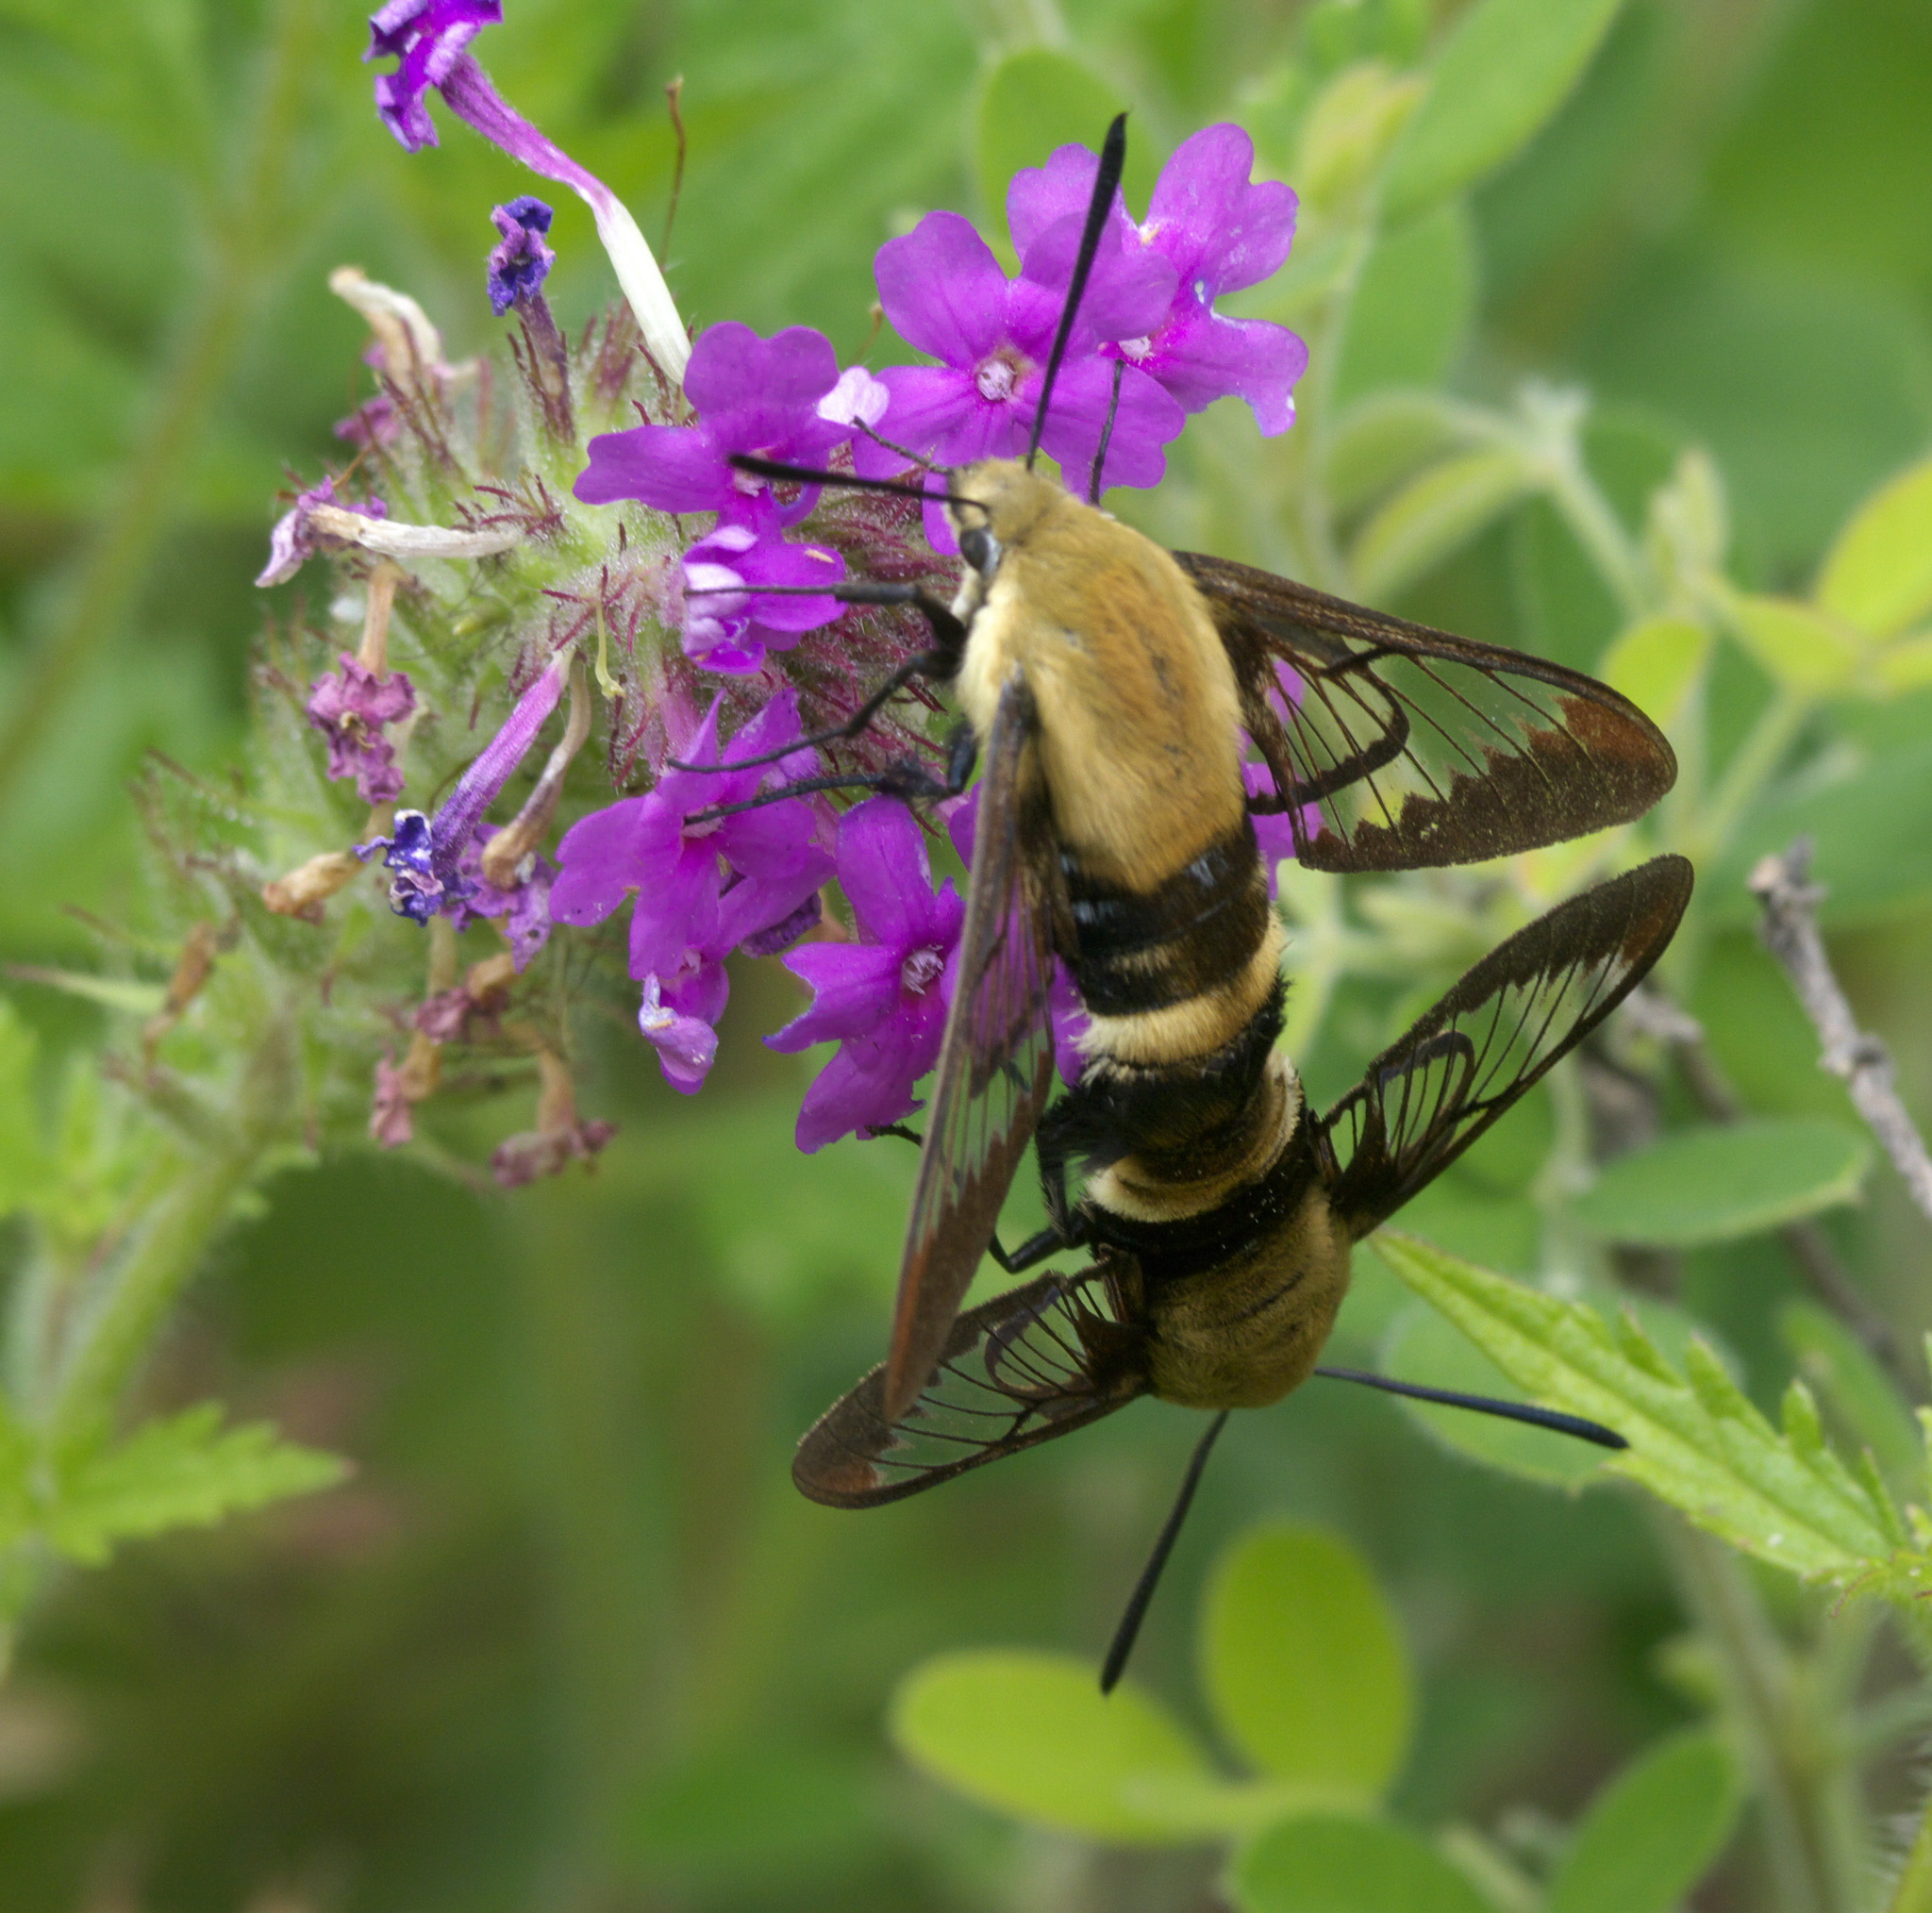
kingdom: Animalia
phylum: Arthropoda
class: Insecta
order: Lepidoptera
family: Sphingidae
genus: Hemaris
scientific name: Hemaris diffinis
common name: Bumblebee moth
